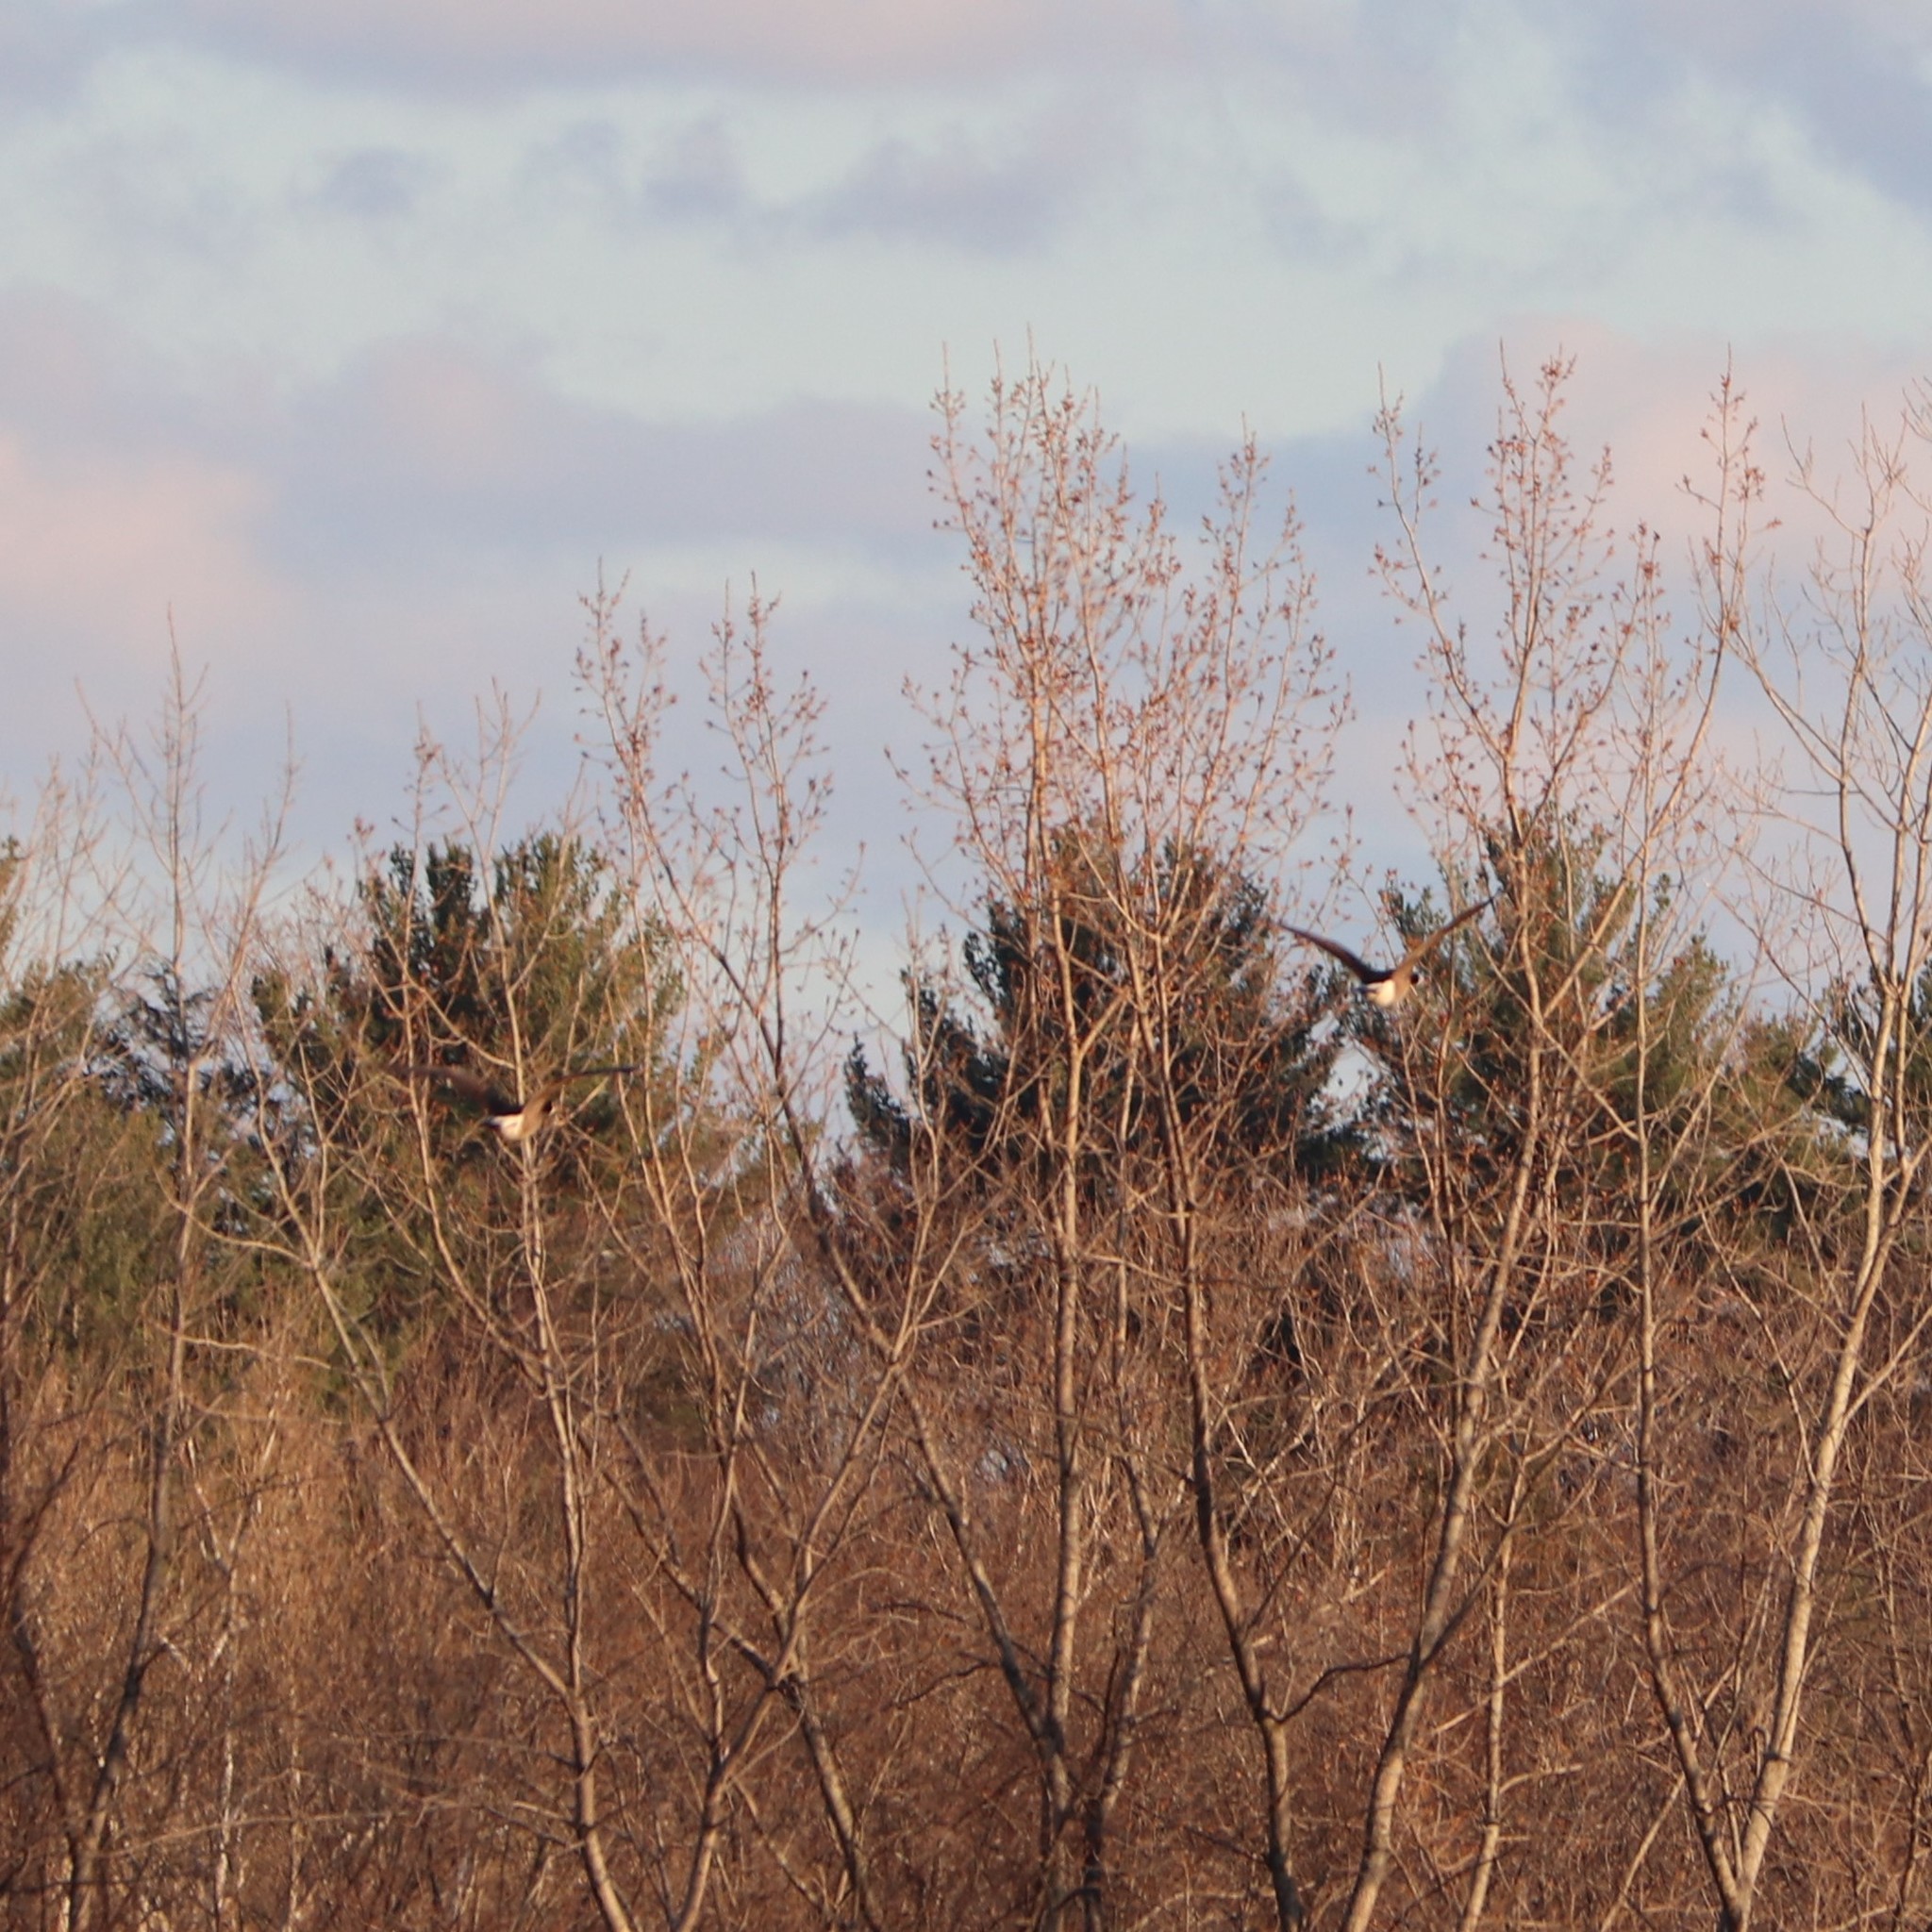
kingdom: Animalia
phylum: Chordata
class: Aves
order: Anseriformes
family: Anatidae
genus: Branta
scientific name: Branta canadensis
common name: Canada goose
